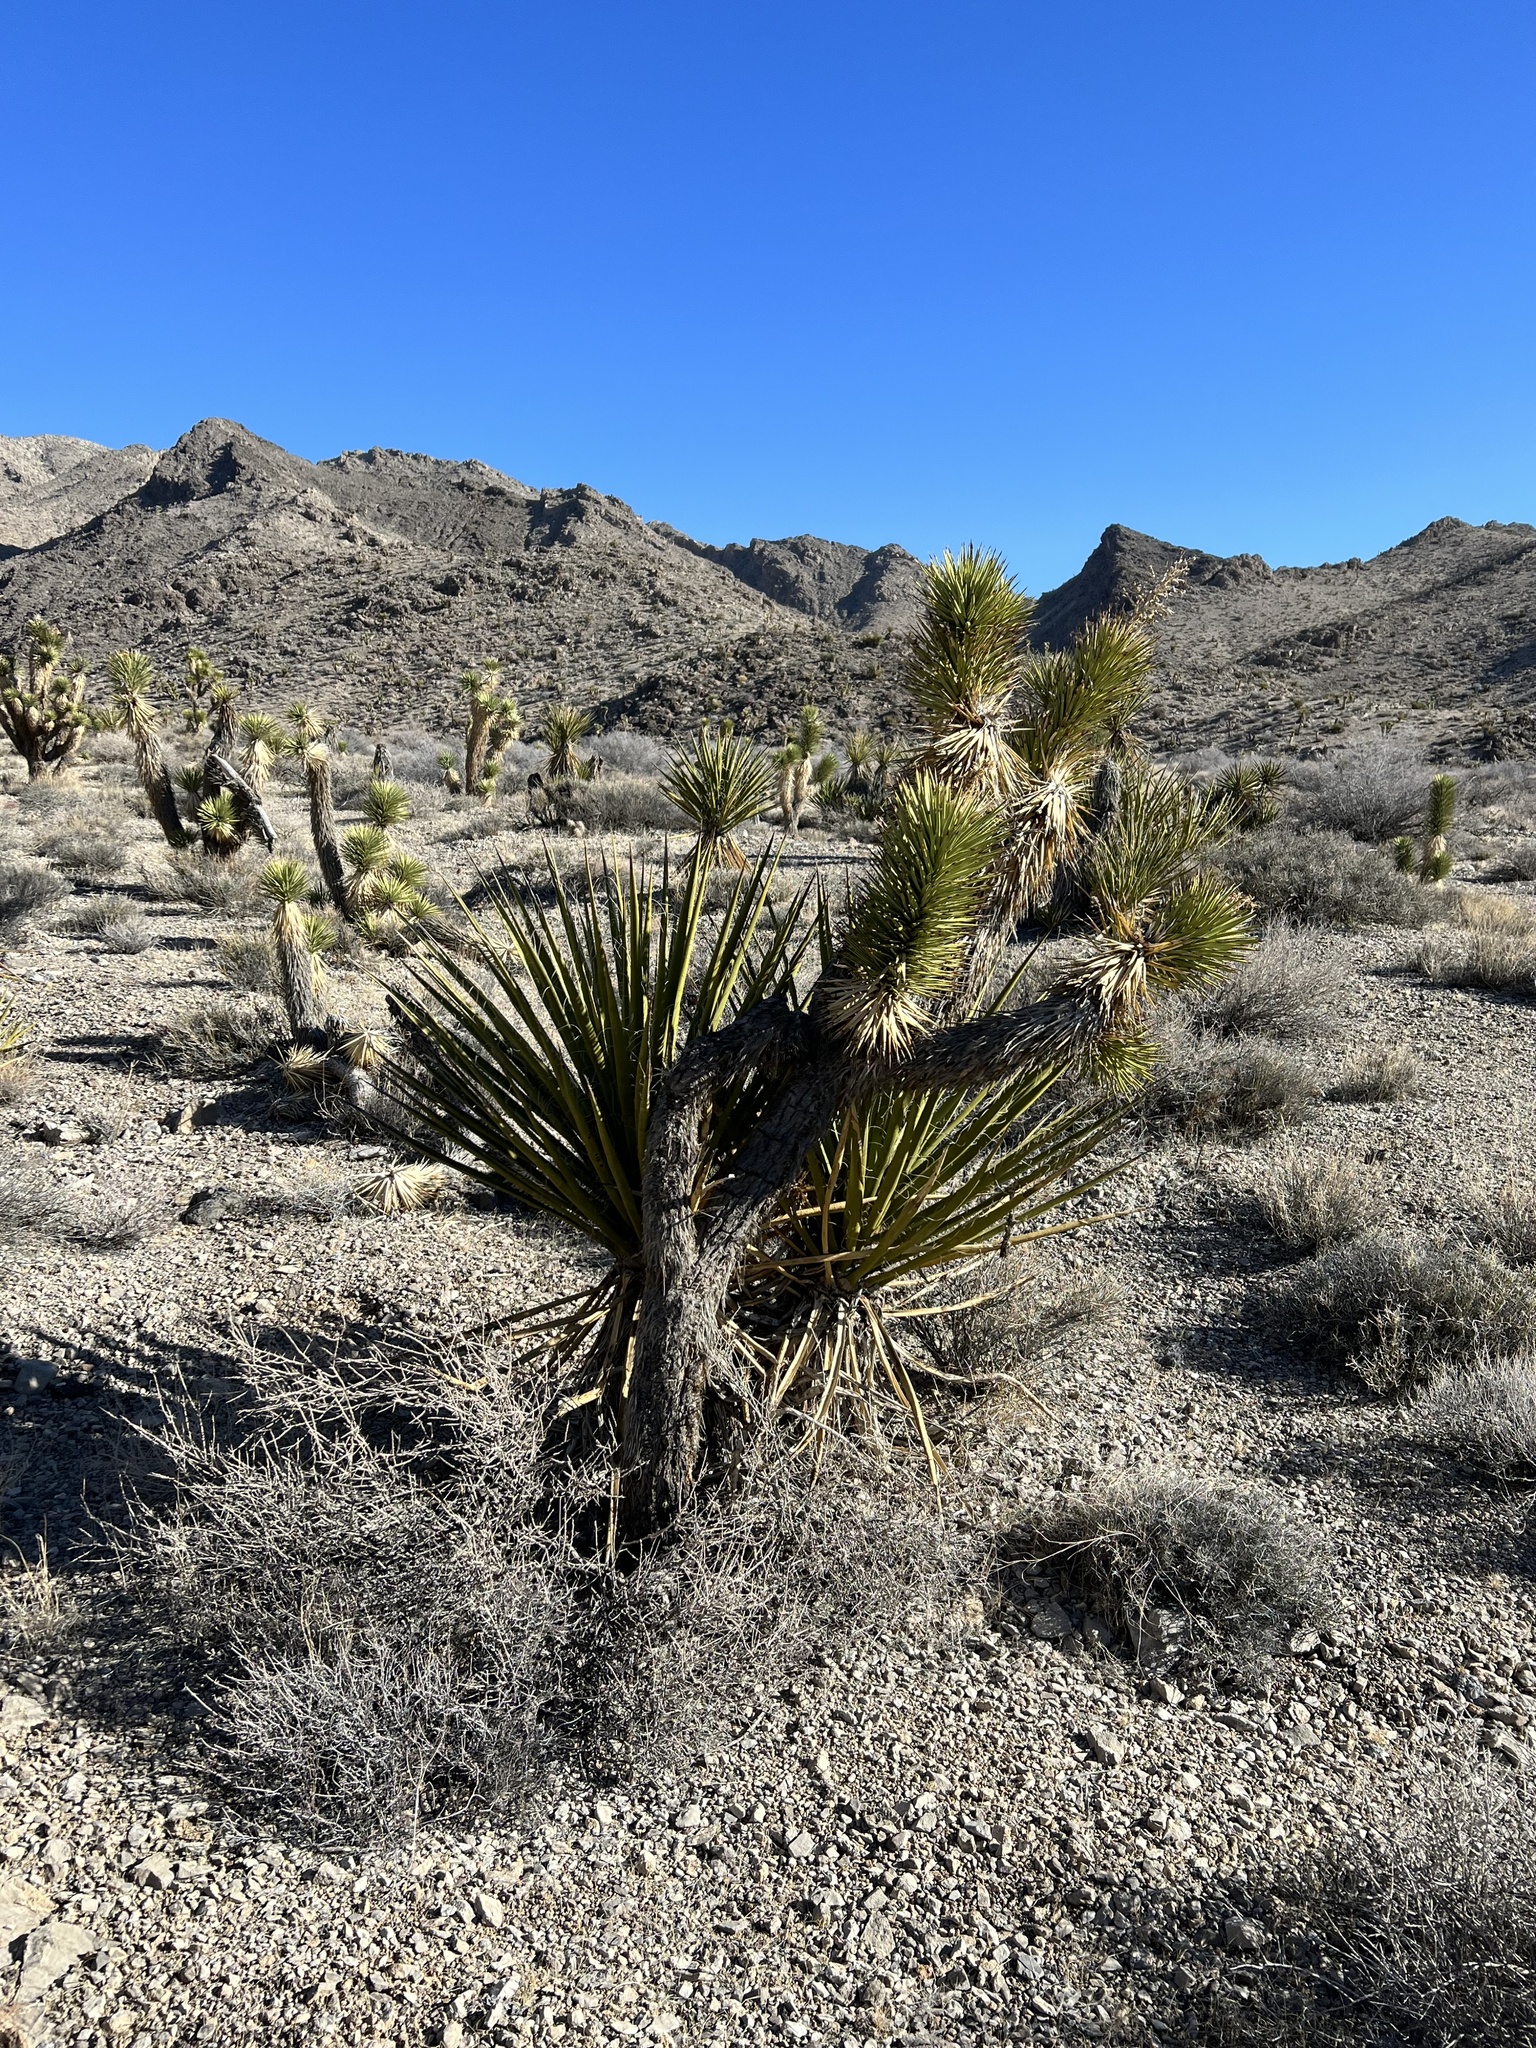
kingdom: Plantae
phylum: Tracheophyta
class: Liliopsida
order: Asparagales
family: Asparagaceae
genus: Yucca
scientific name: Yucca schidigera
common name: Mojave yucca
